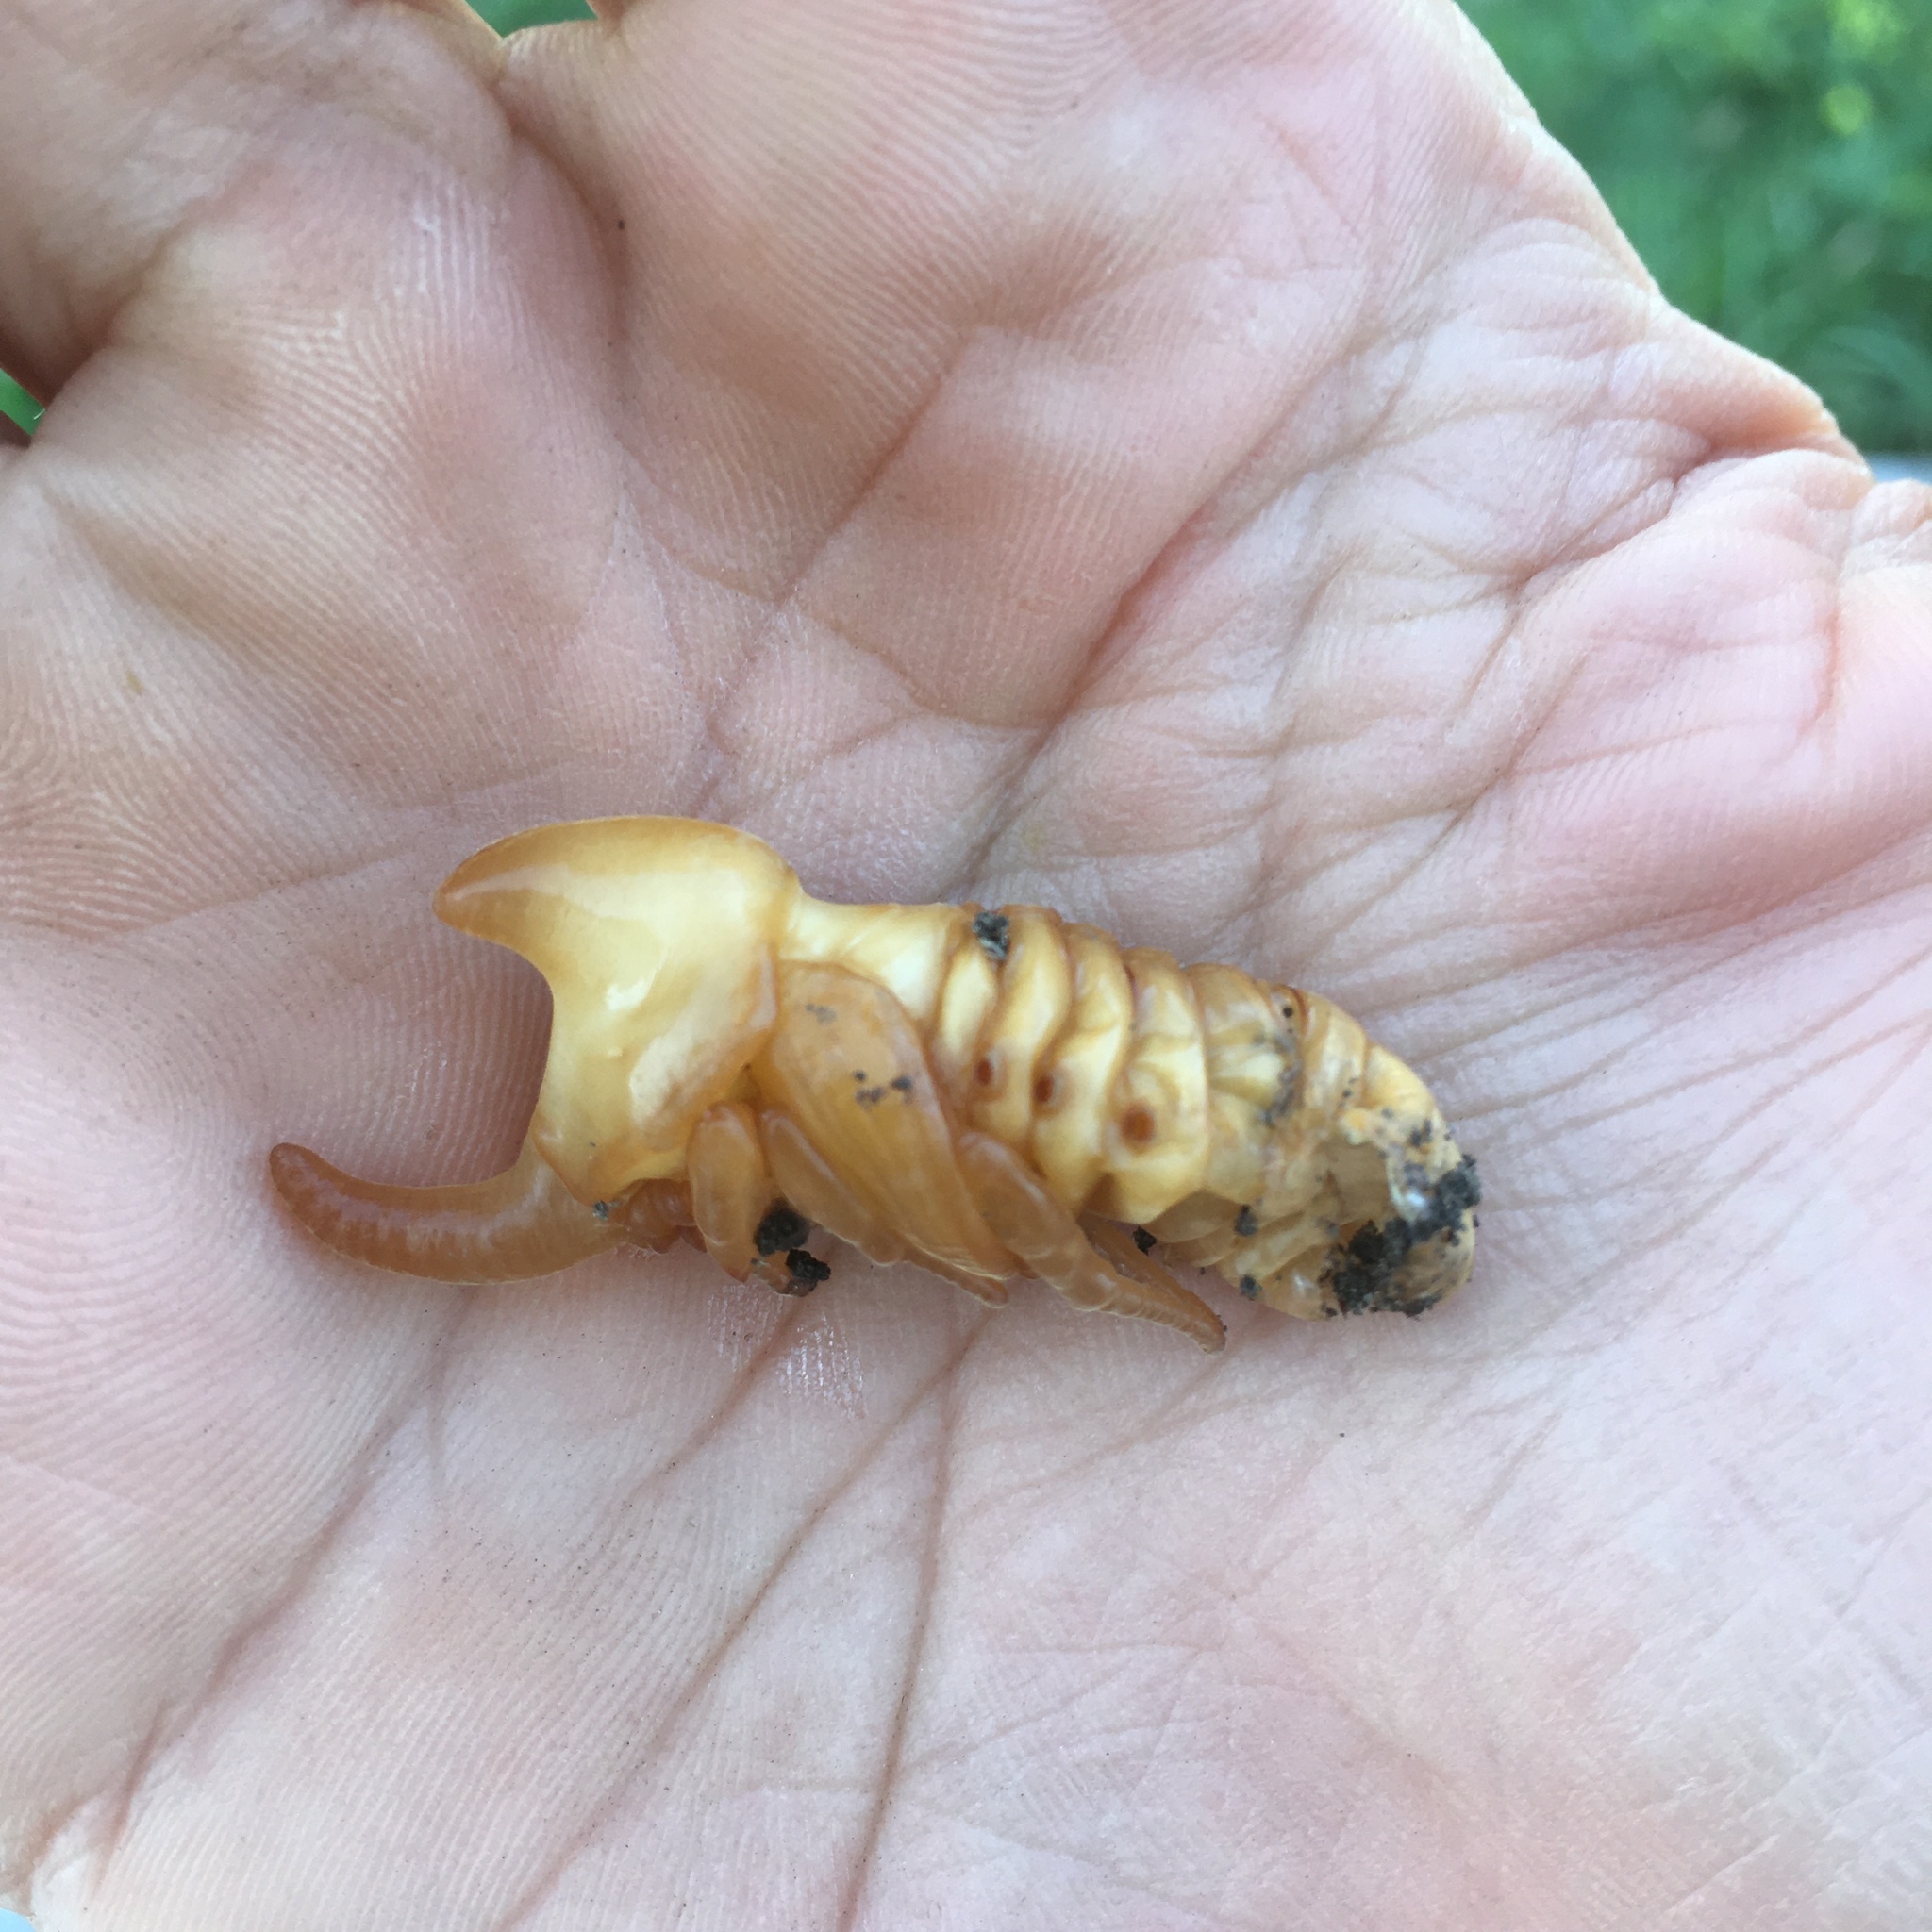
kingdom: Animalia
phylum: Arthropoda
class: Insecta
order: Coleoptera
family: Scarabaeidae
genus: Diloboderus
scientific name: Diloboderus abderus
